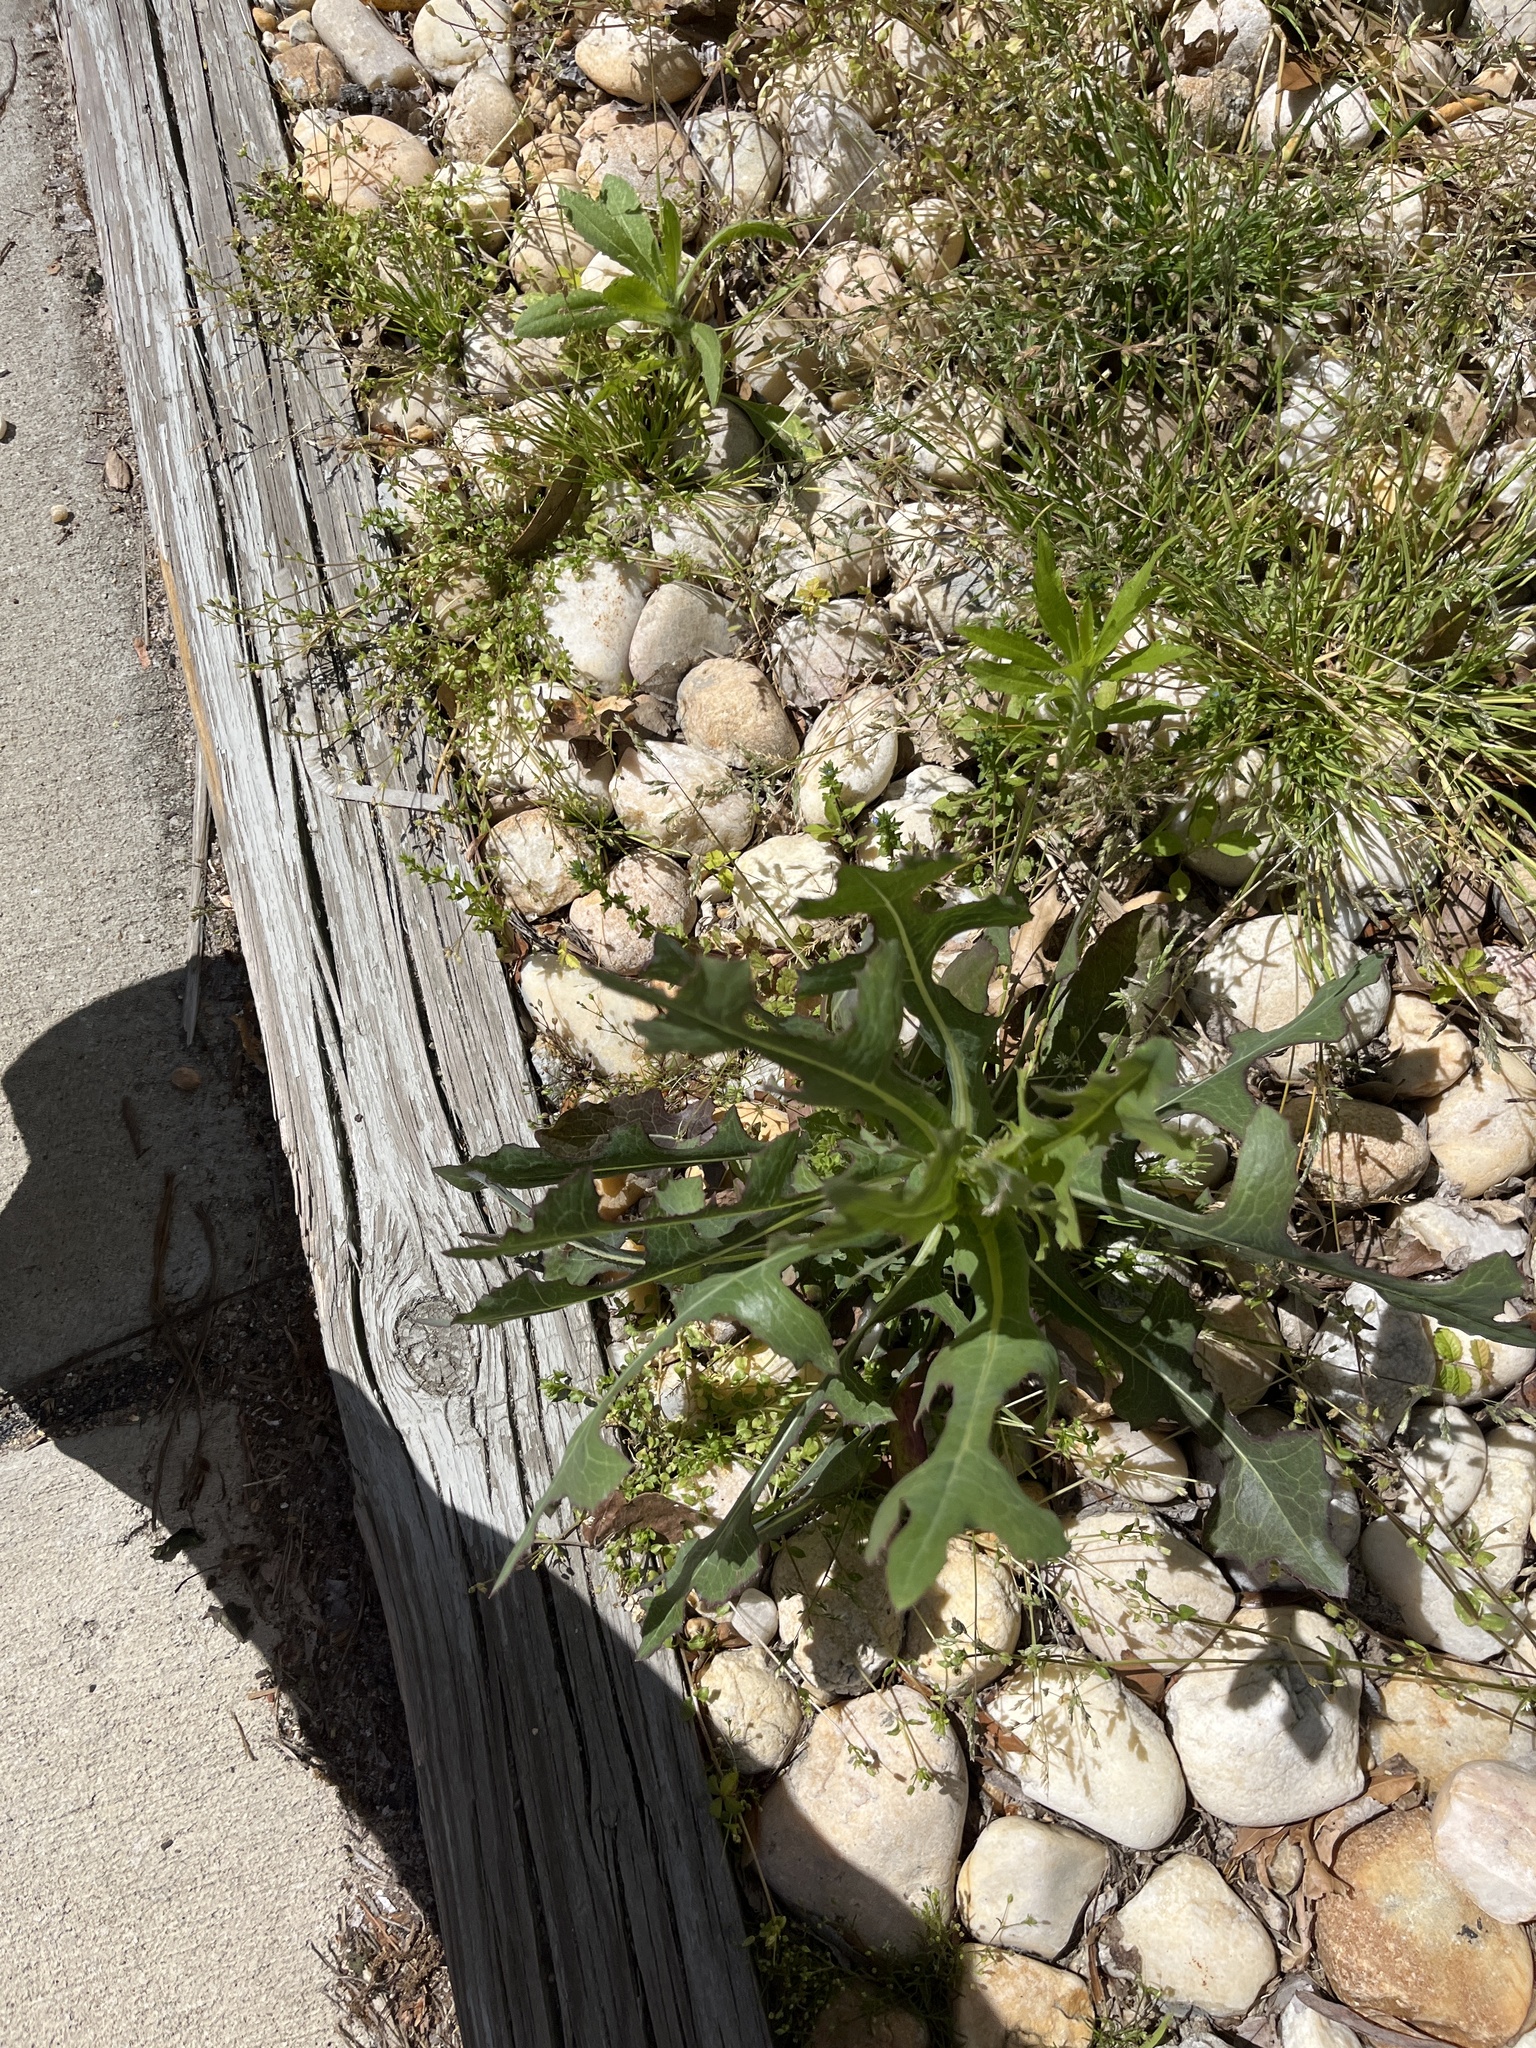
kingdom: Plantae
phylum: Tracheophyta
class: Magnoliopsida
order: Asterales
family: Asteraceae
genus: Lactuca
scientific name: Lactuca serriola
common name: Prickly lettuce
